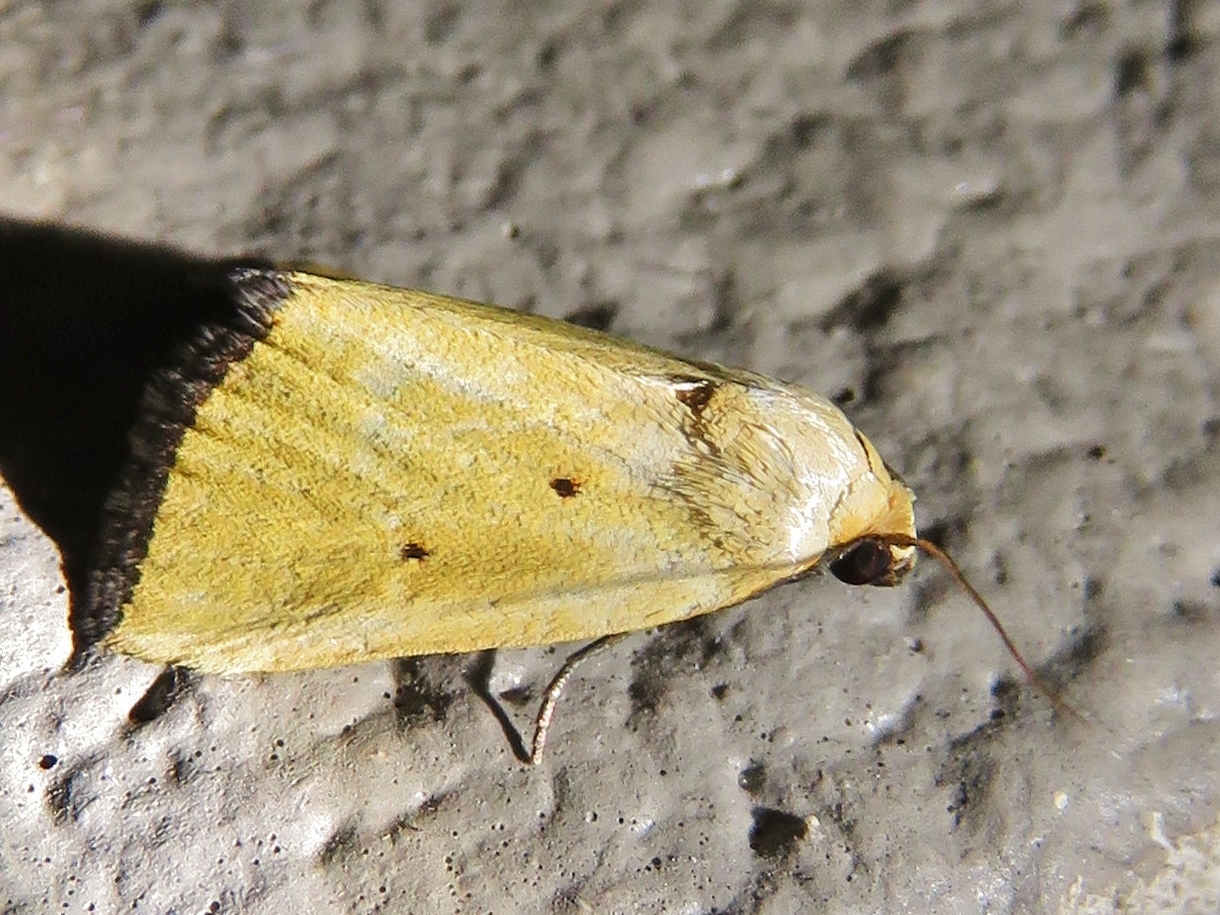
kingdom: Animalia
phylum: Arthropoda
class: Insecta
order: Lepidoptera
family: Noctuidae
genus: Marimatha
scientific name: Marimatha nigrofimbria
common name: Black-bordered lemon moth
